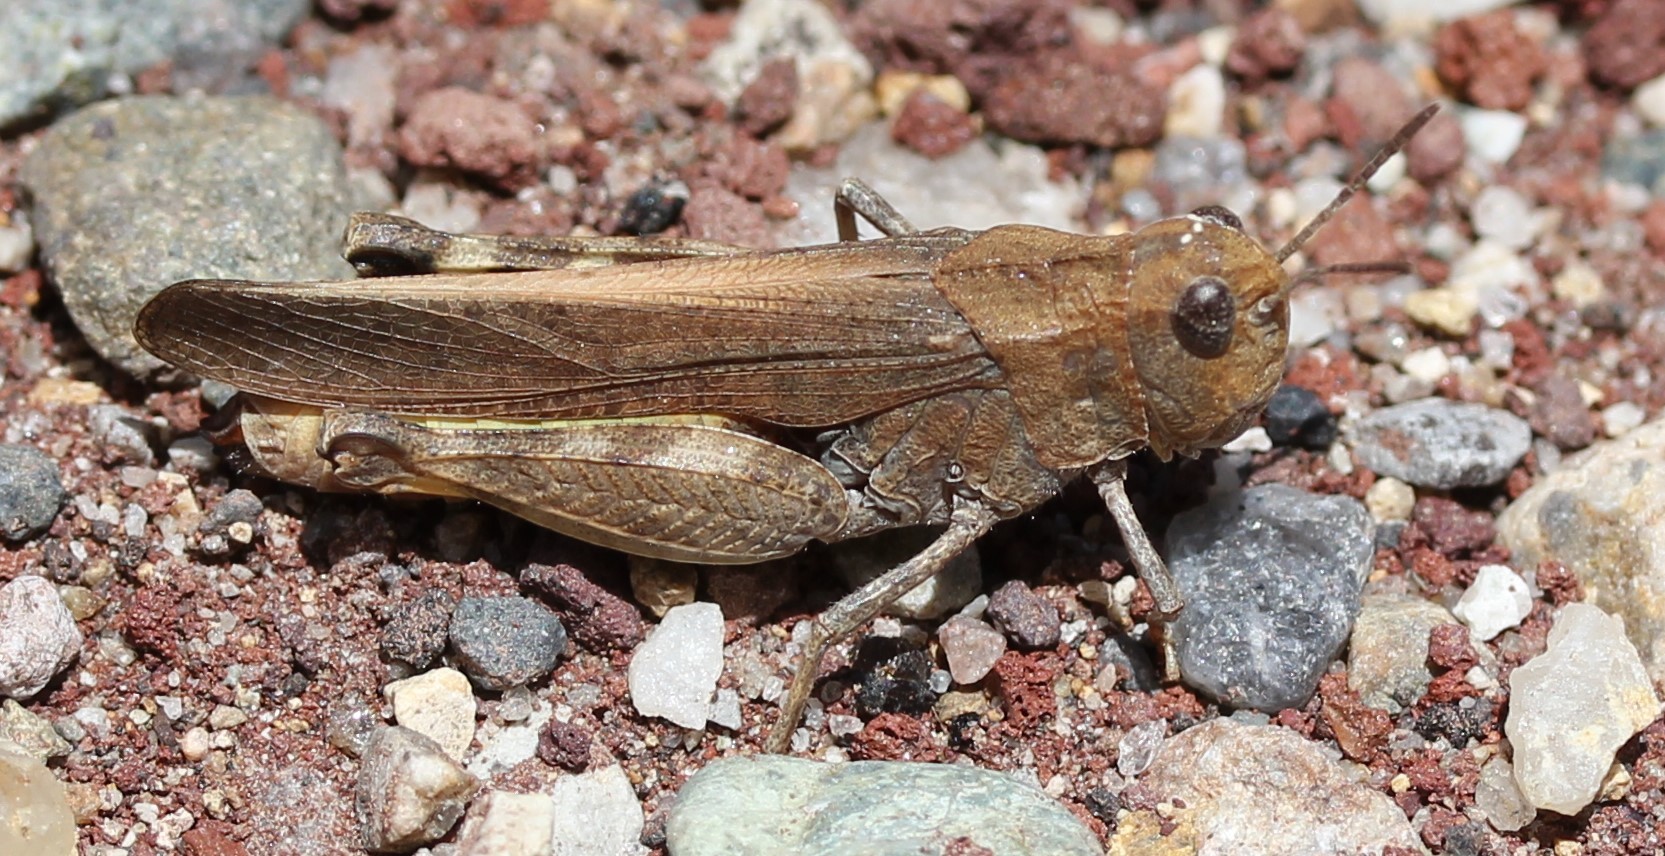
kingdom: Animalia
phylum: Arthropoda
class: Insecta
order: Orthoptera
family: Acrididae
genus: Arphia
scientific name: Arphia conspersa
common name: Speckle-winged rangeland grasshopper
